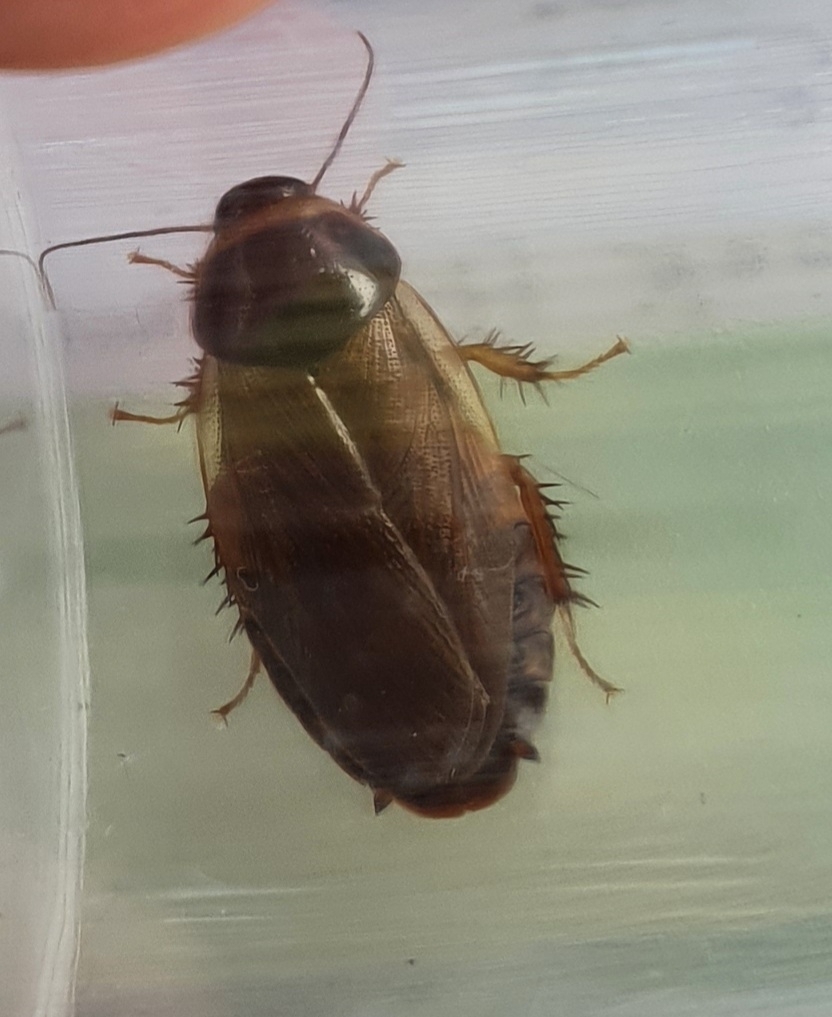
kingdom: Animalia
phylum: Arthropoda
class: Insecta
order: Blattodea
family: Blaberidae
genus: Pycnoscelus
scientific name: Pycnoscelus surinamensis
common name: Surinam cockroach
